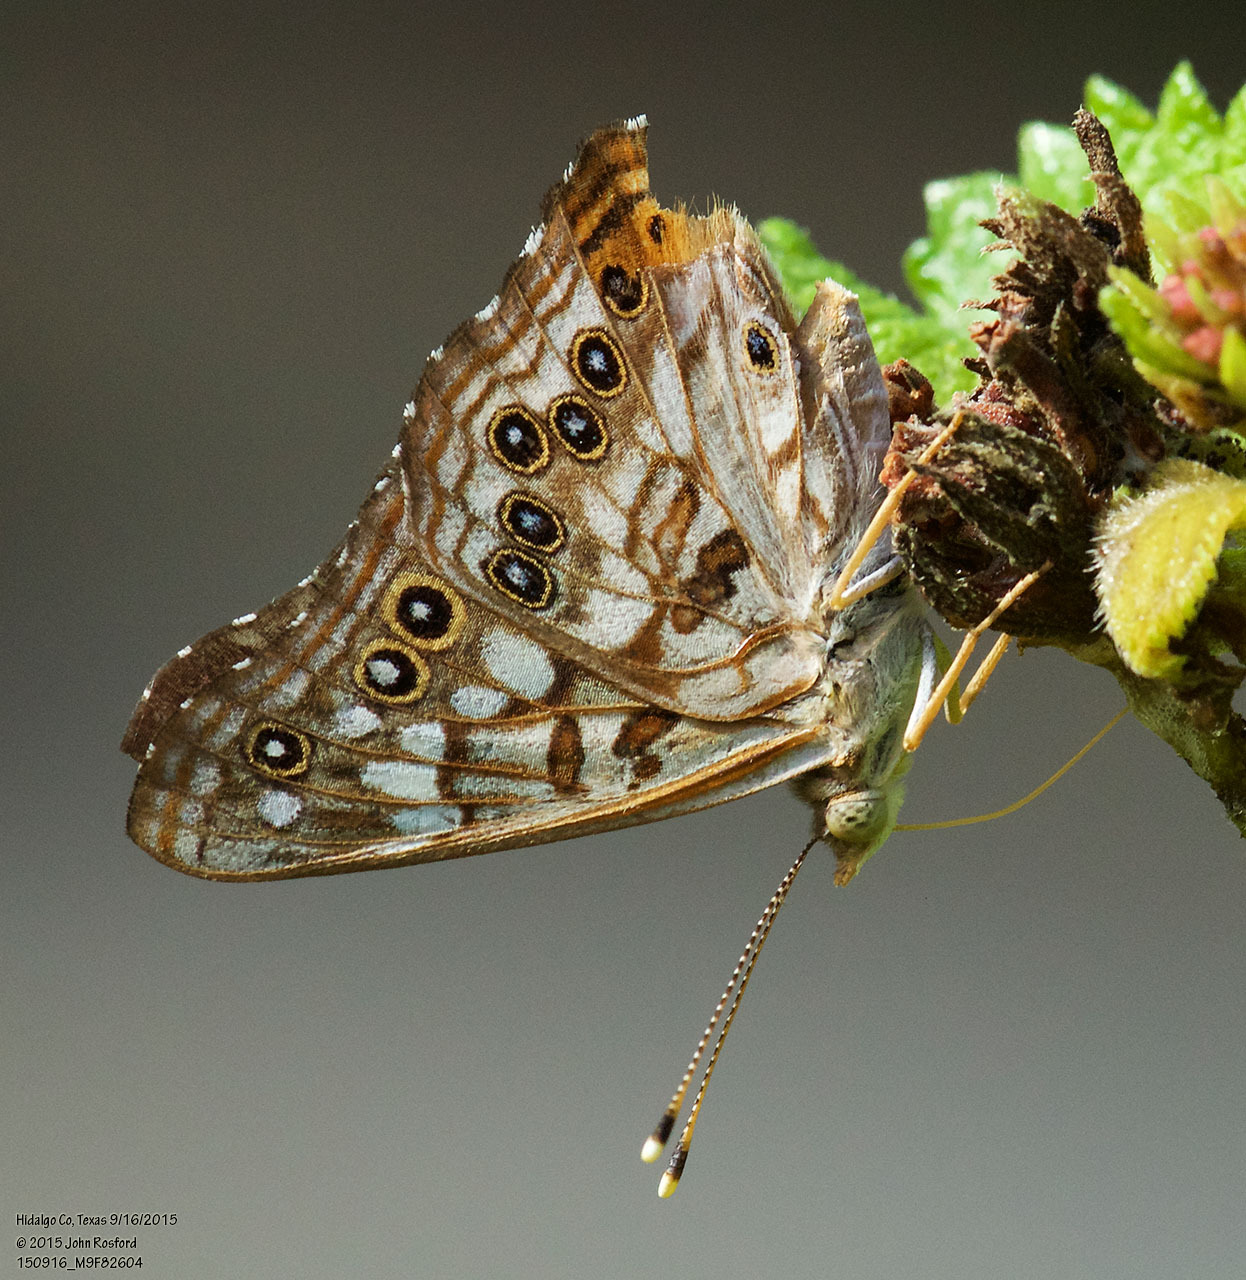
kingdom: Animalia
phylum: Arthropoda
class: Insecta
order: Lepidoptera
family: Nymphalidae
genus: Asterocampa
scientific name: Asterocampa celtis
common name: Hackberry emperor
